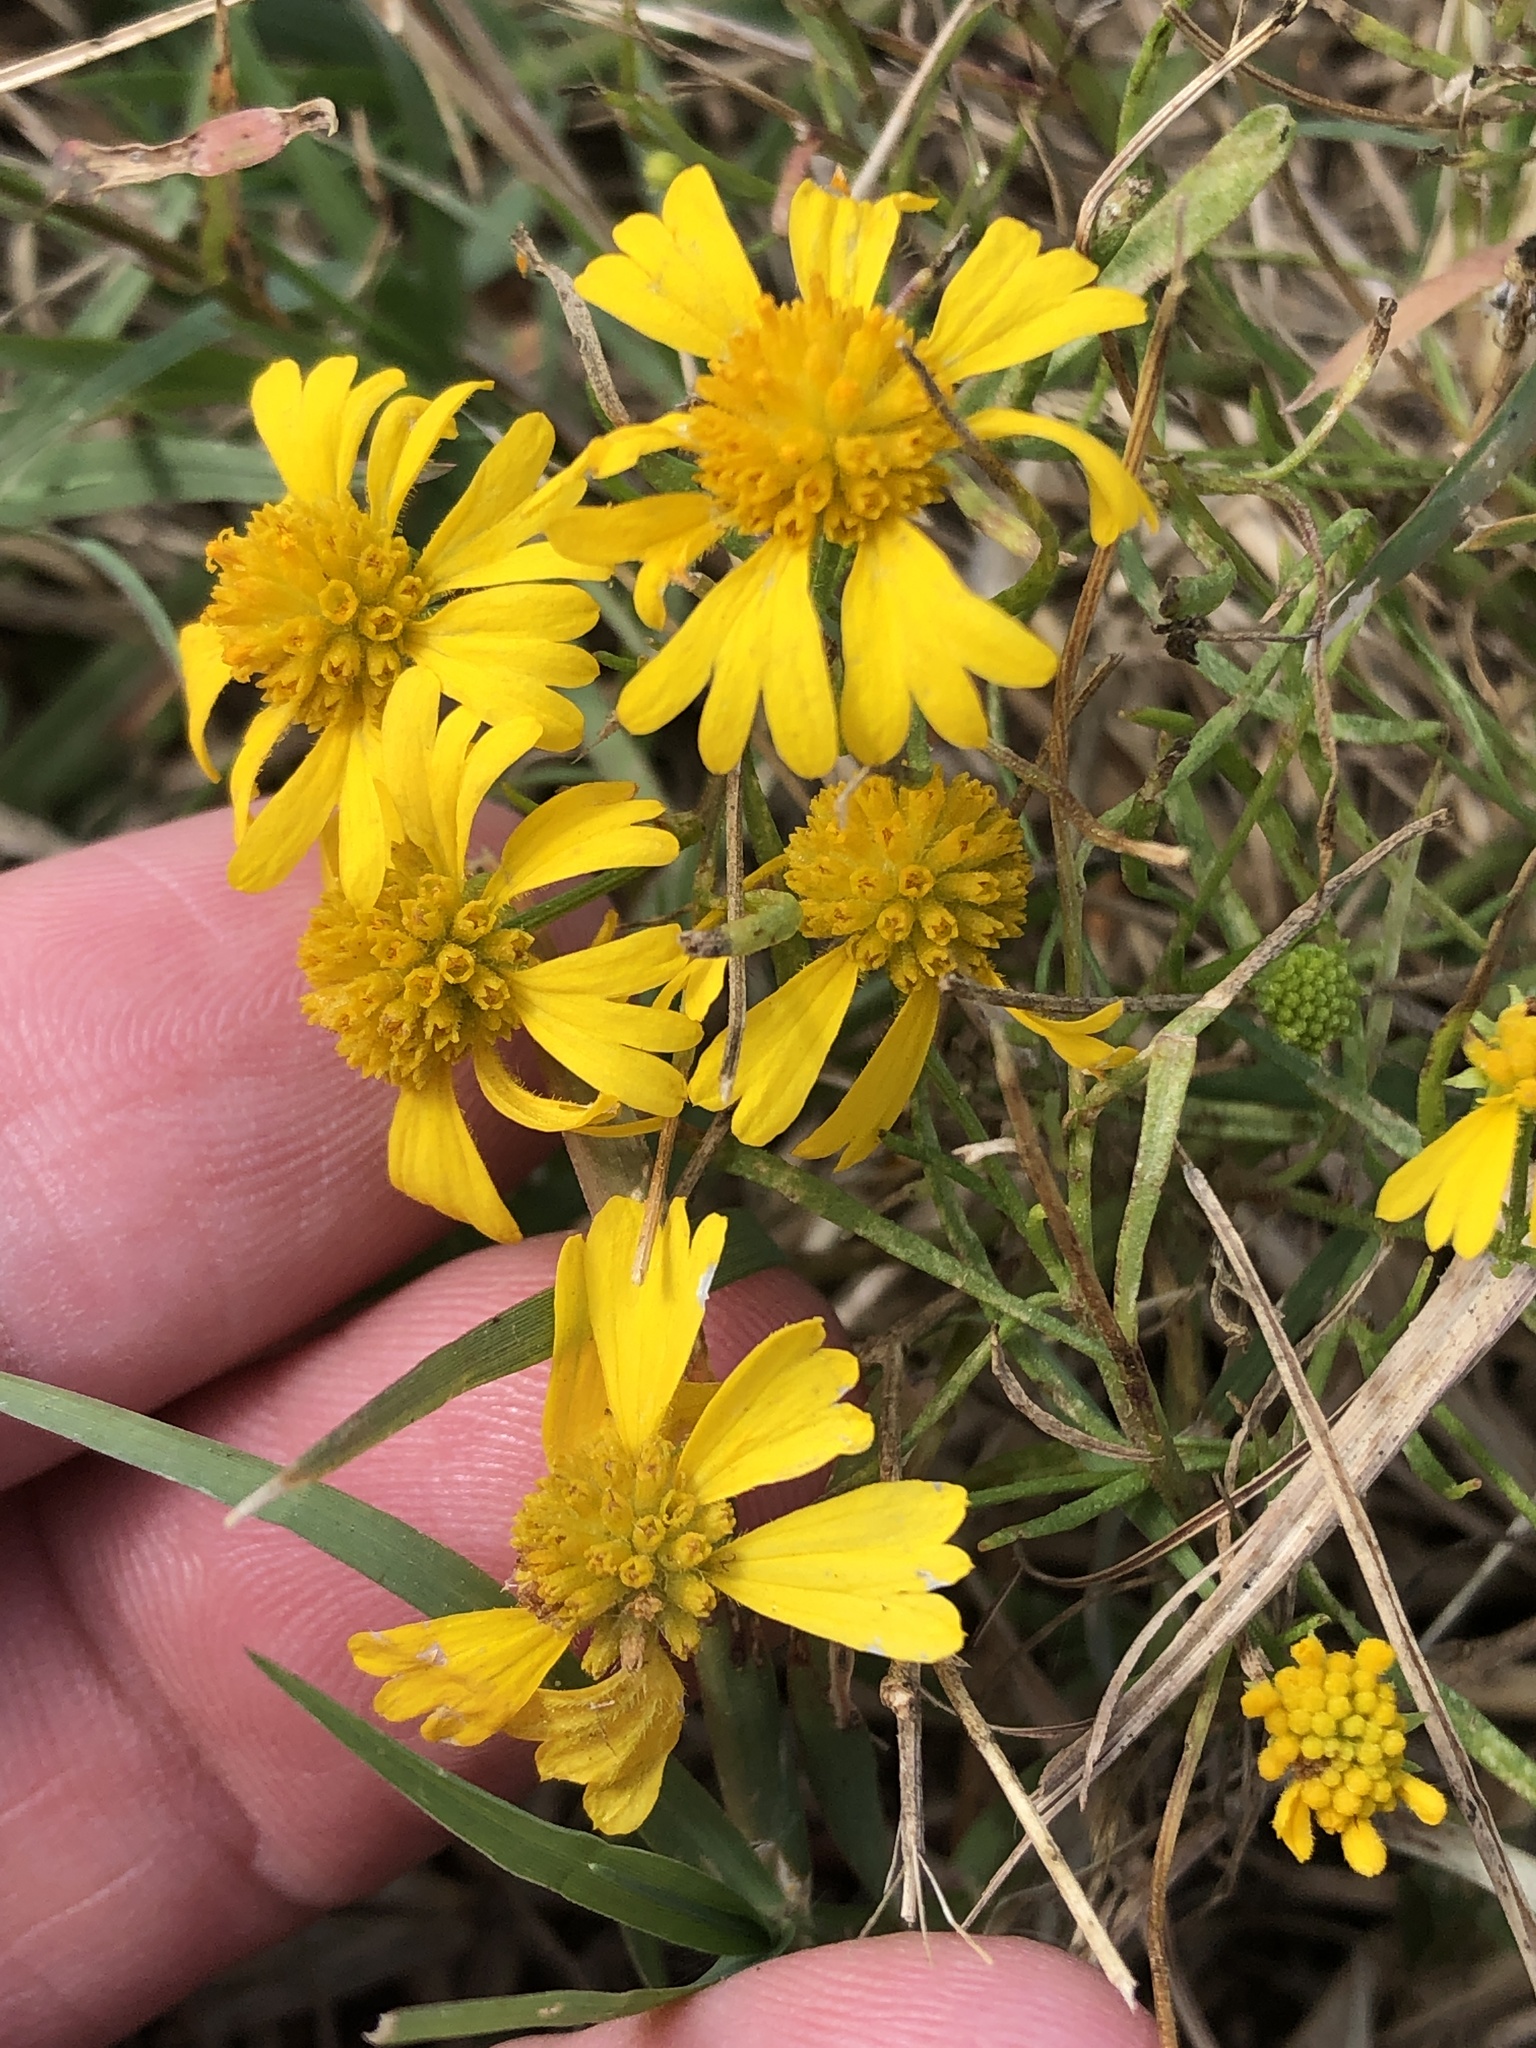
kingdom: Plantae
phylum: Tracheophyta
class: Magnoliopsida
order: Asterales
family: Asteraceae
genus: Helenium
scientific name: Helenium amarum
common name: Bitter sneezeweed
